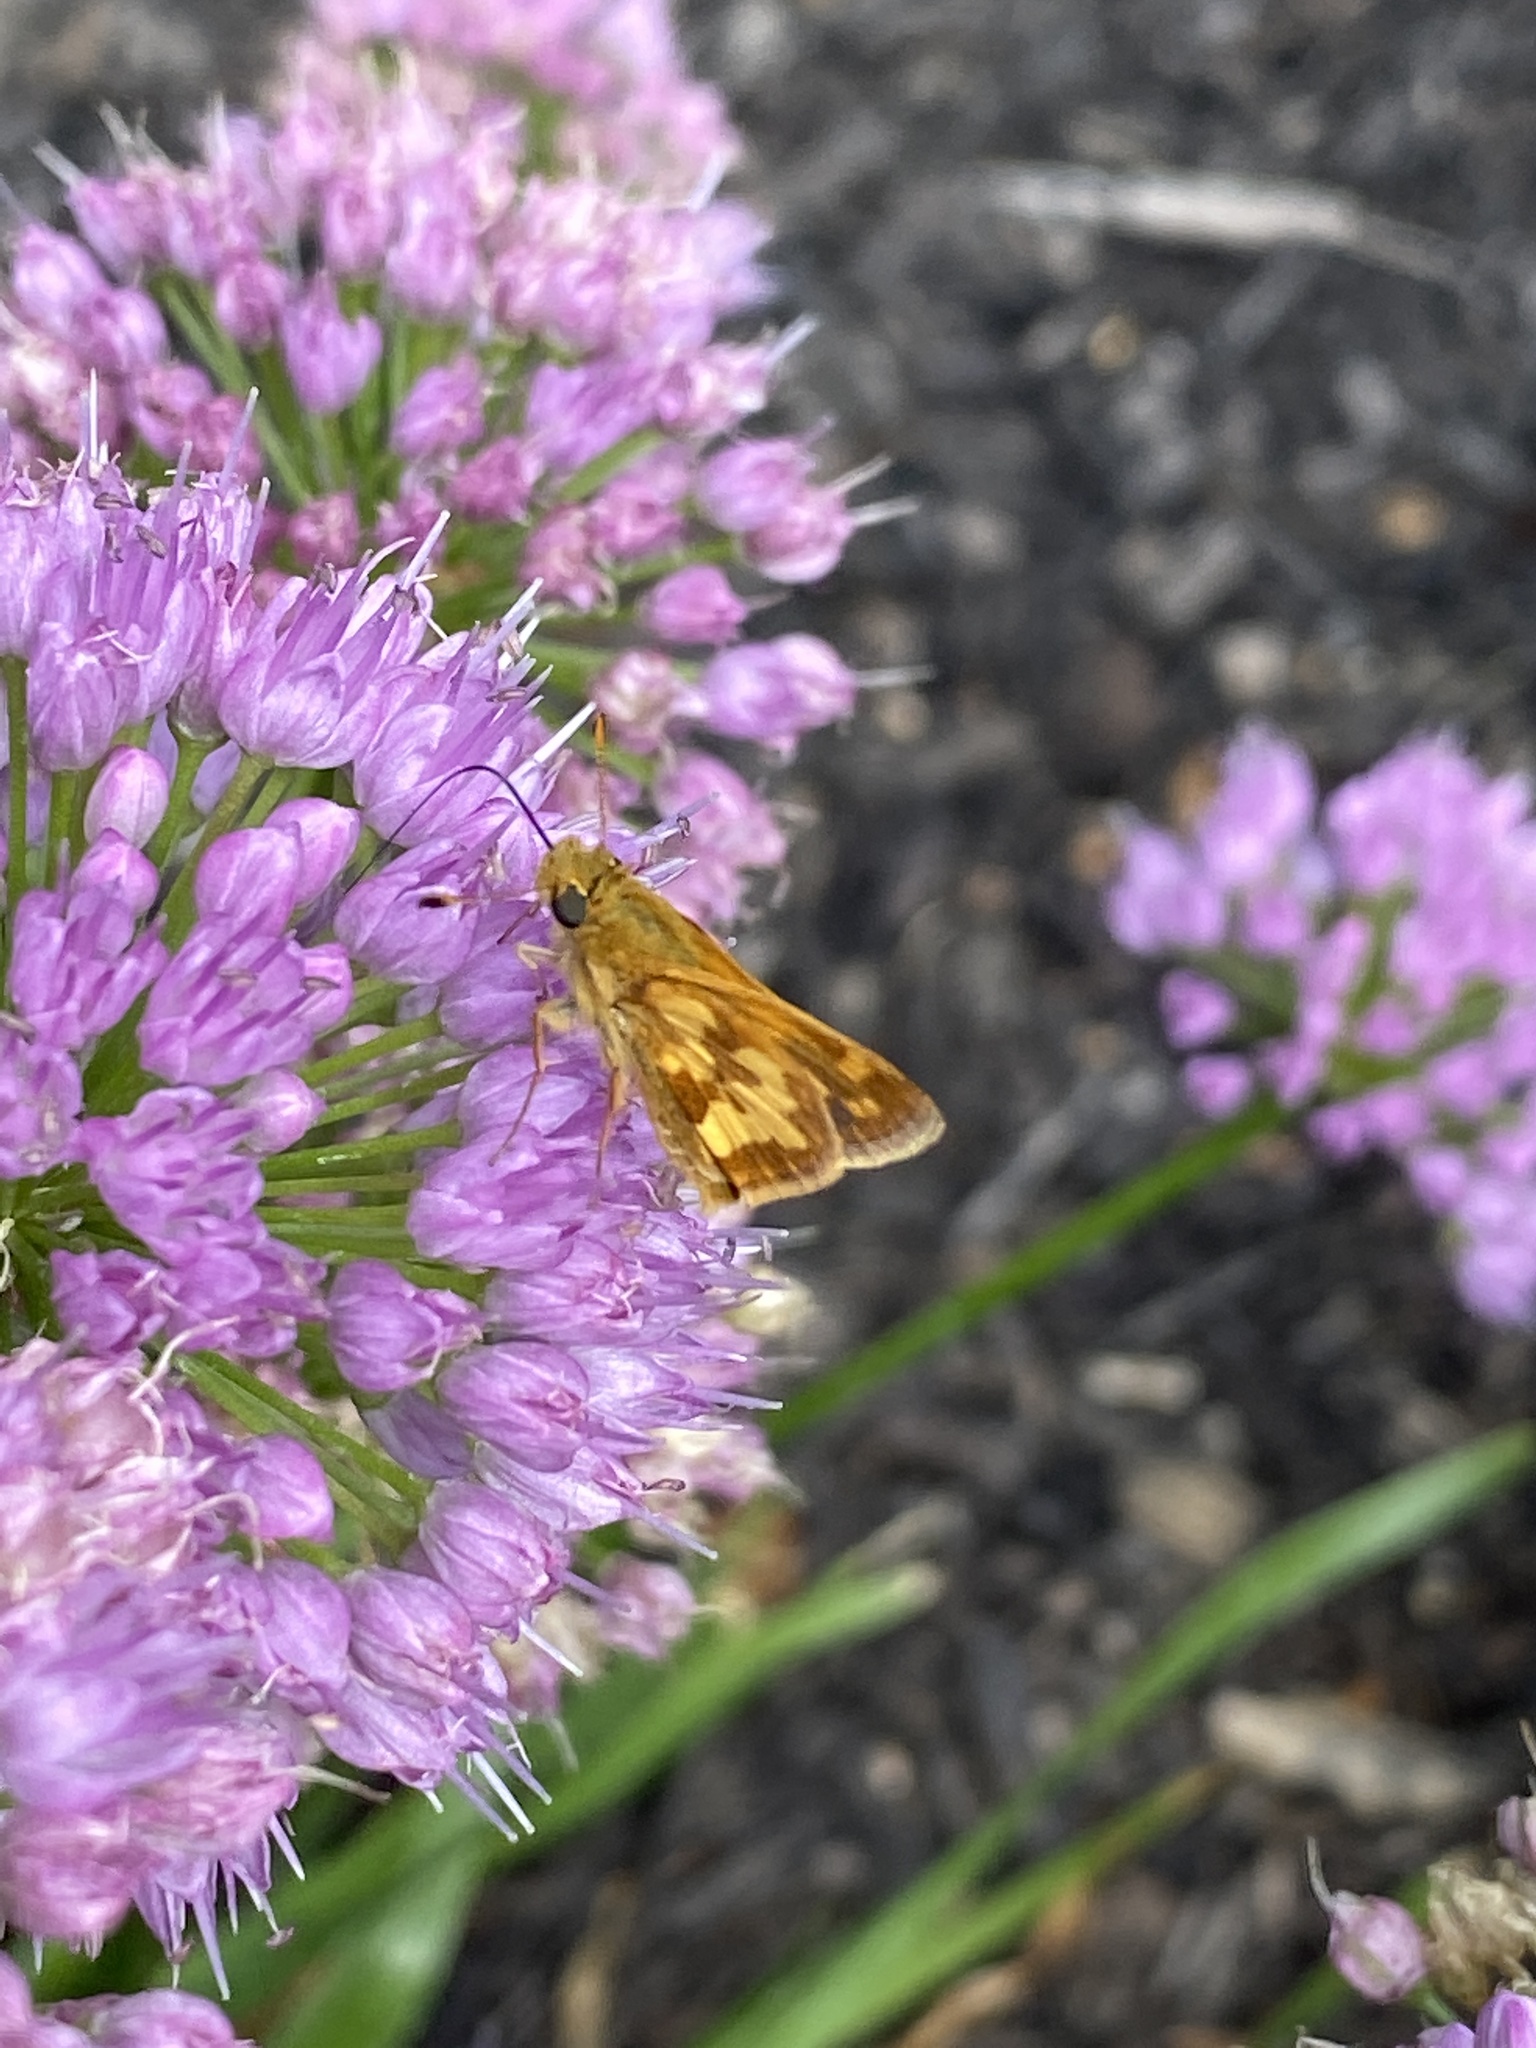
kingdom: Animalia
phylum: Arthropoda
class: Insecta
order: Lepidoptera
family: Hesperiidae
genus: Polites
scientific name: Polites coras
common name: Peck's skipper
